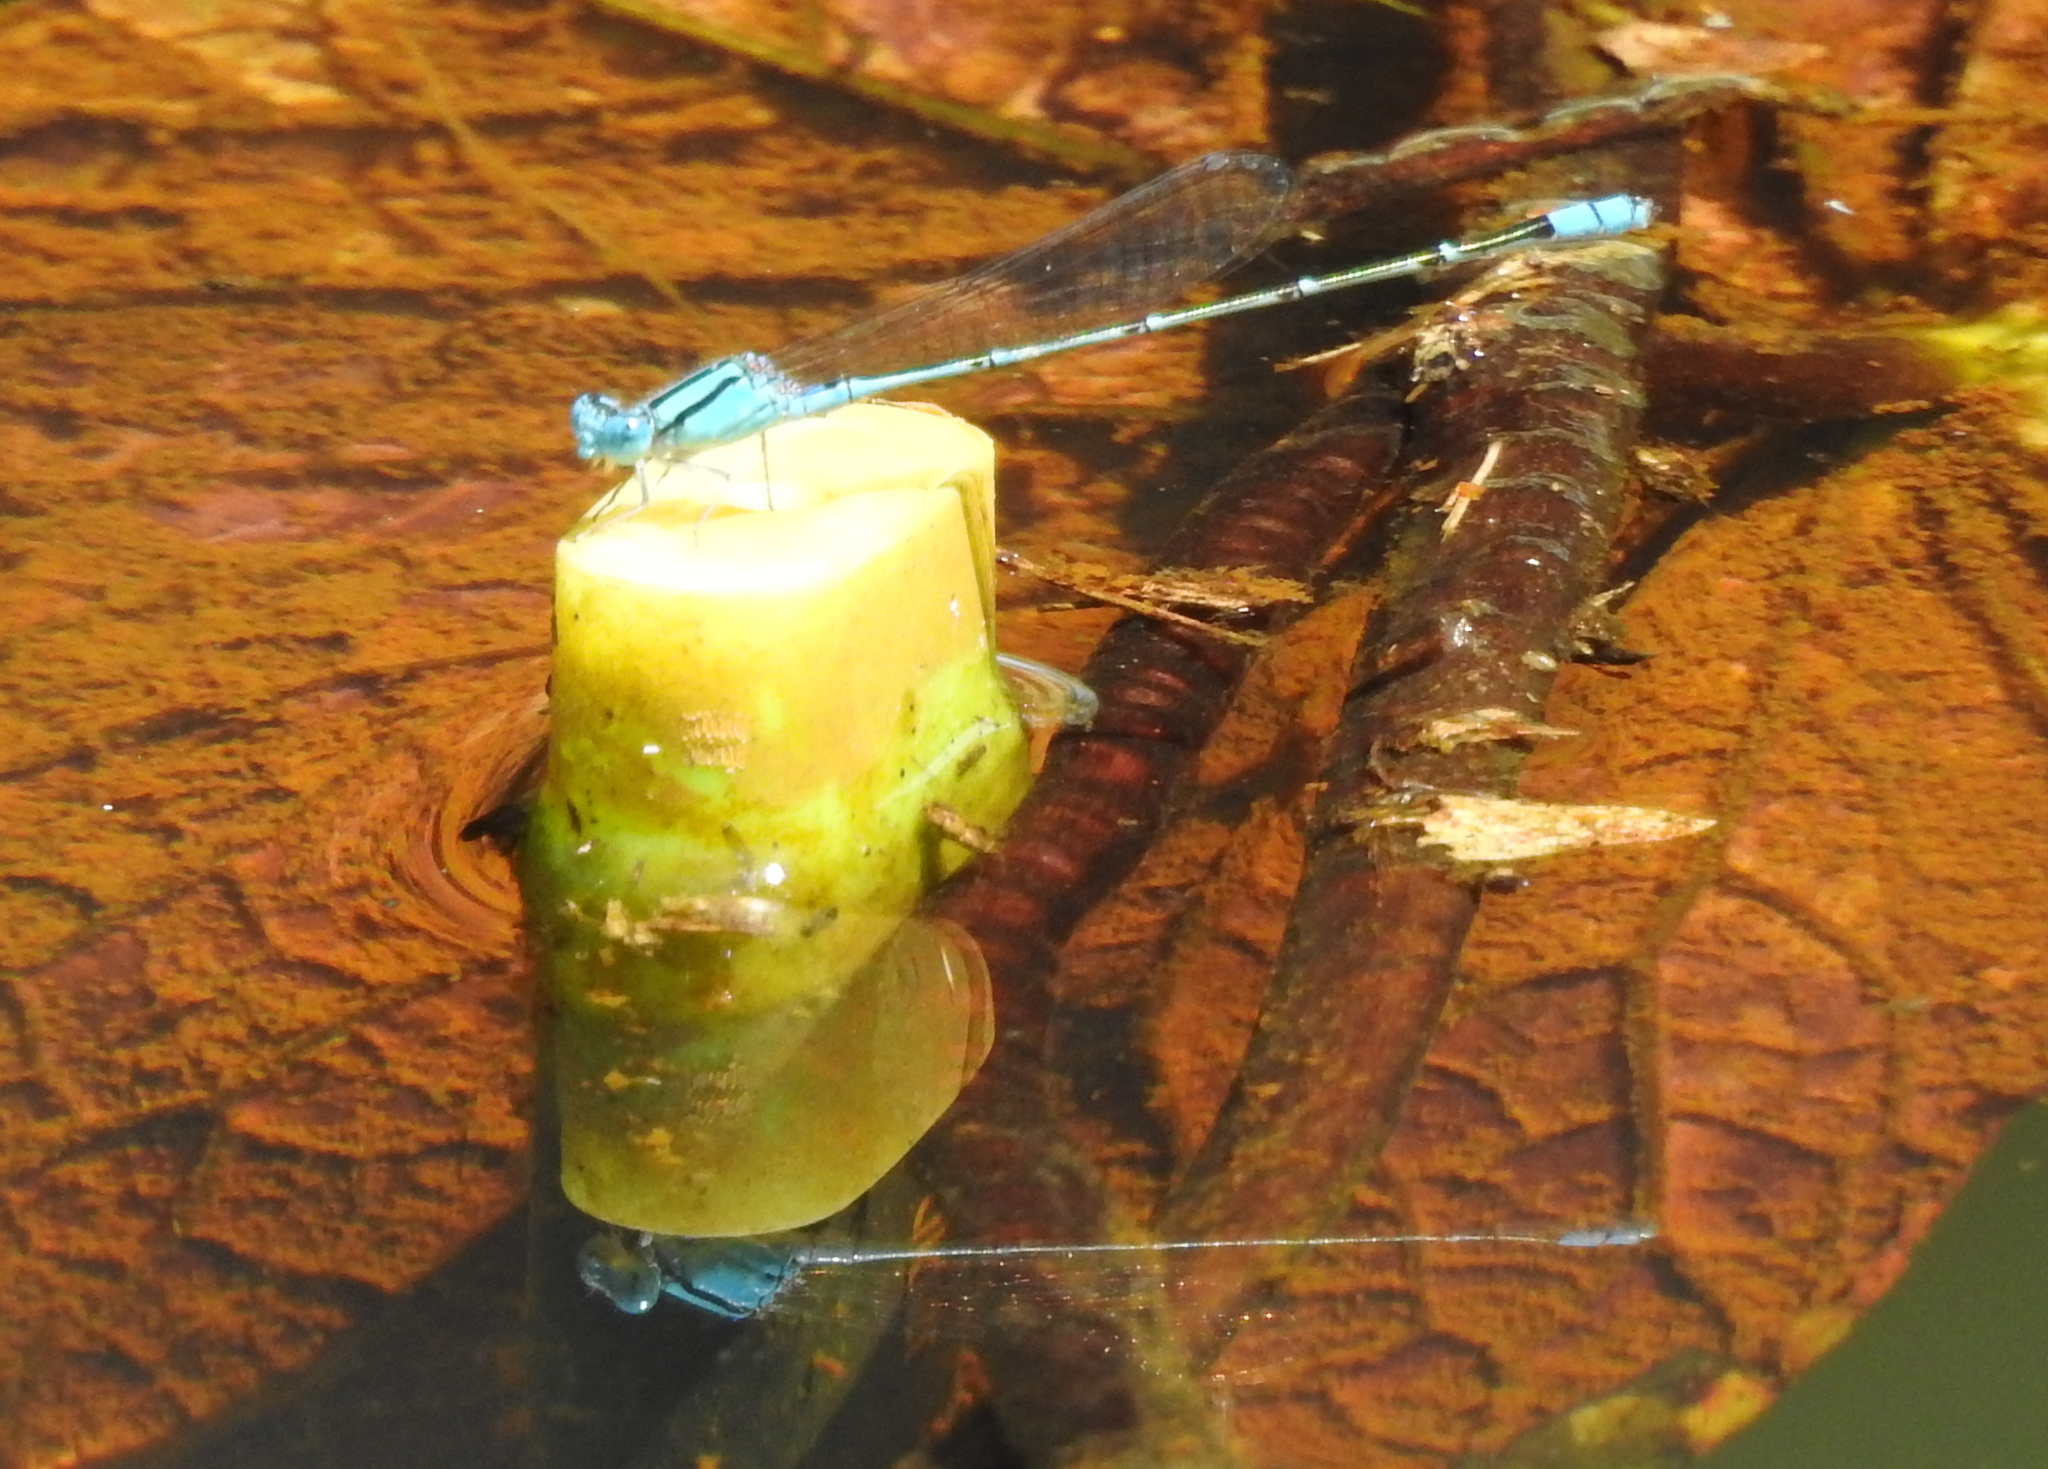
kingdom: Animalia
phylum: Arthropoda
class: Insecta
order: Odonata
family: Coenagrionidae
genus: Pseudagrion
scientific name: Pseudagrion microcephalum
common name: Blue riverdamsel
